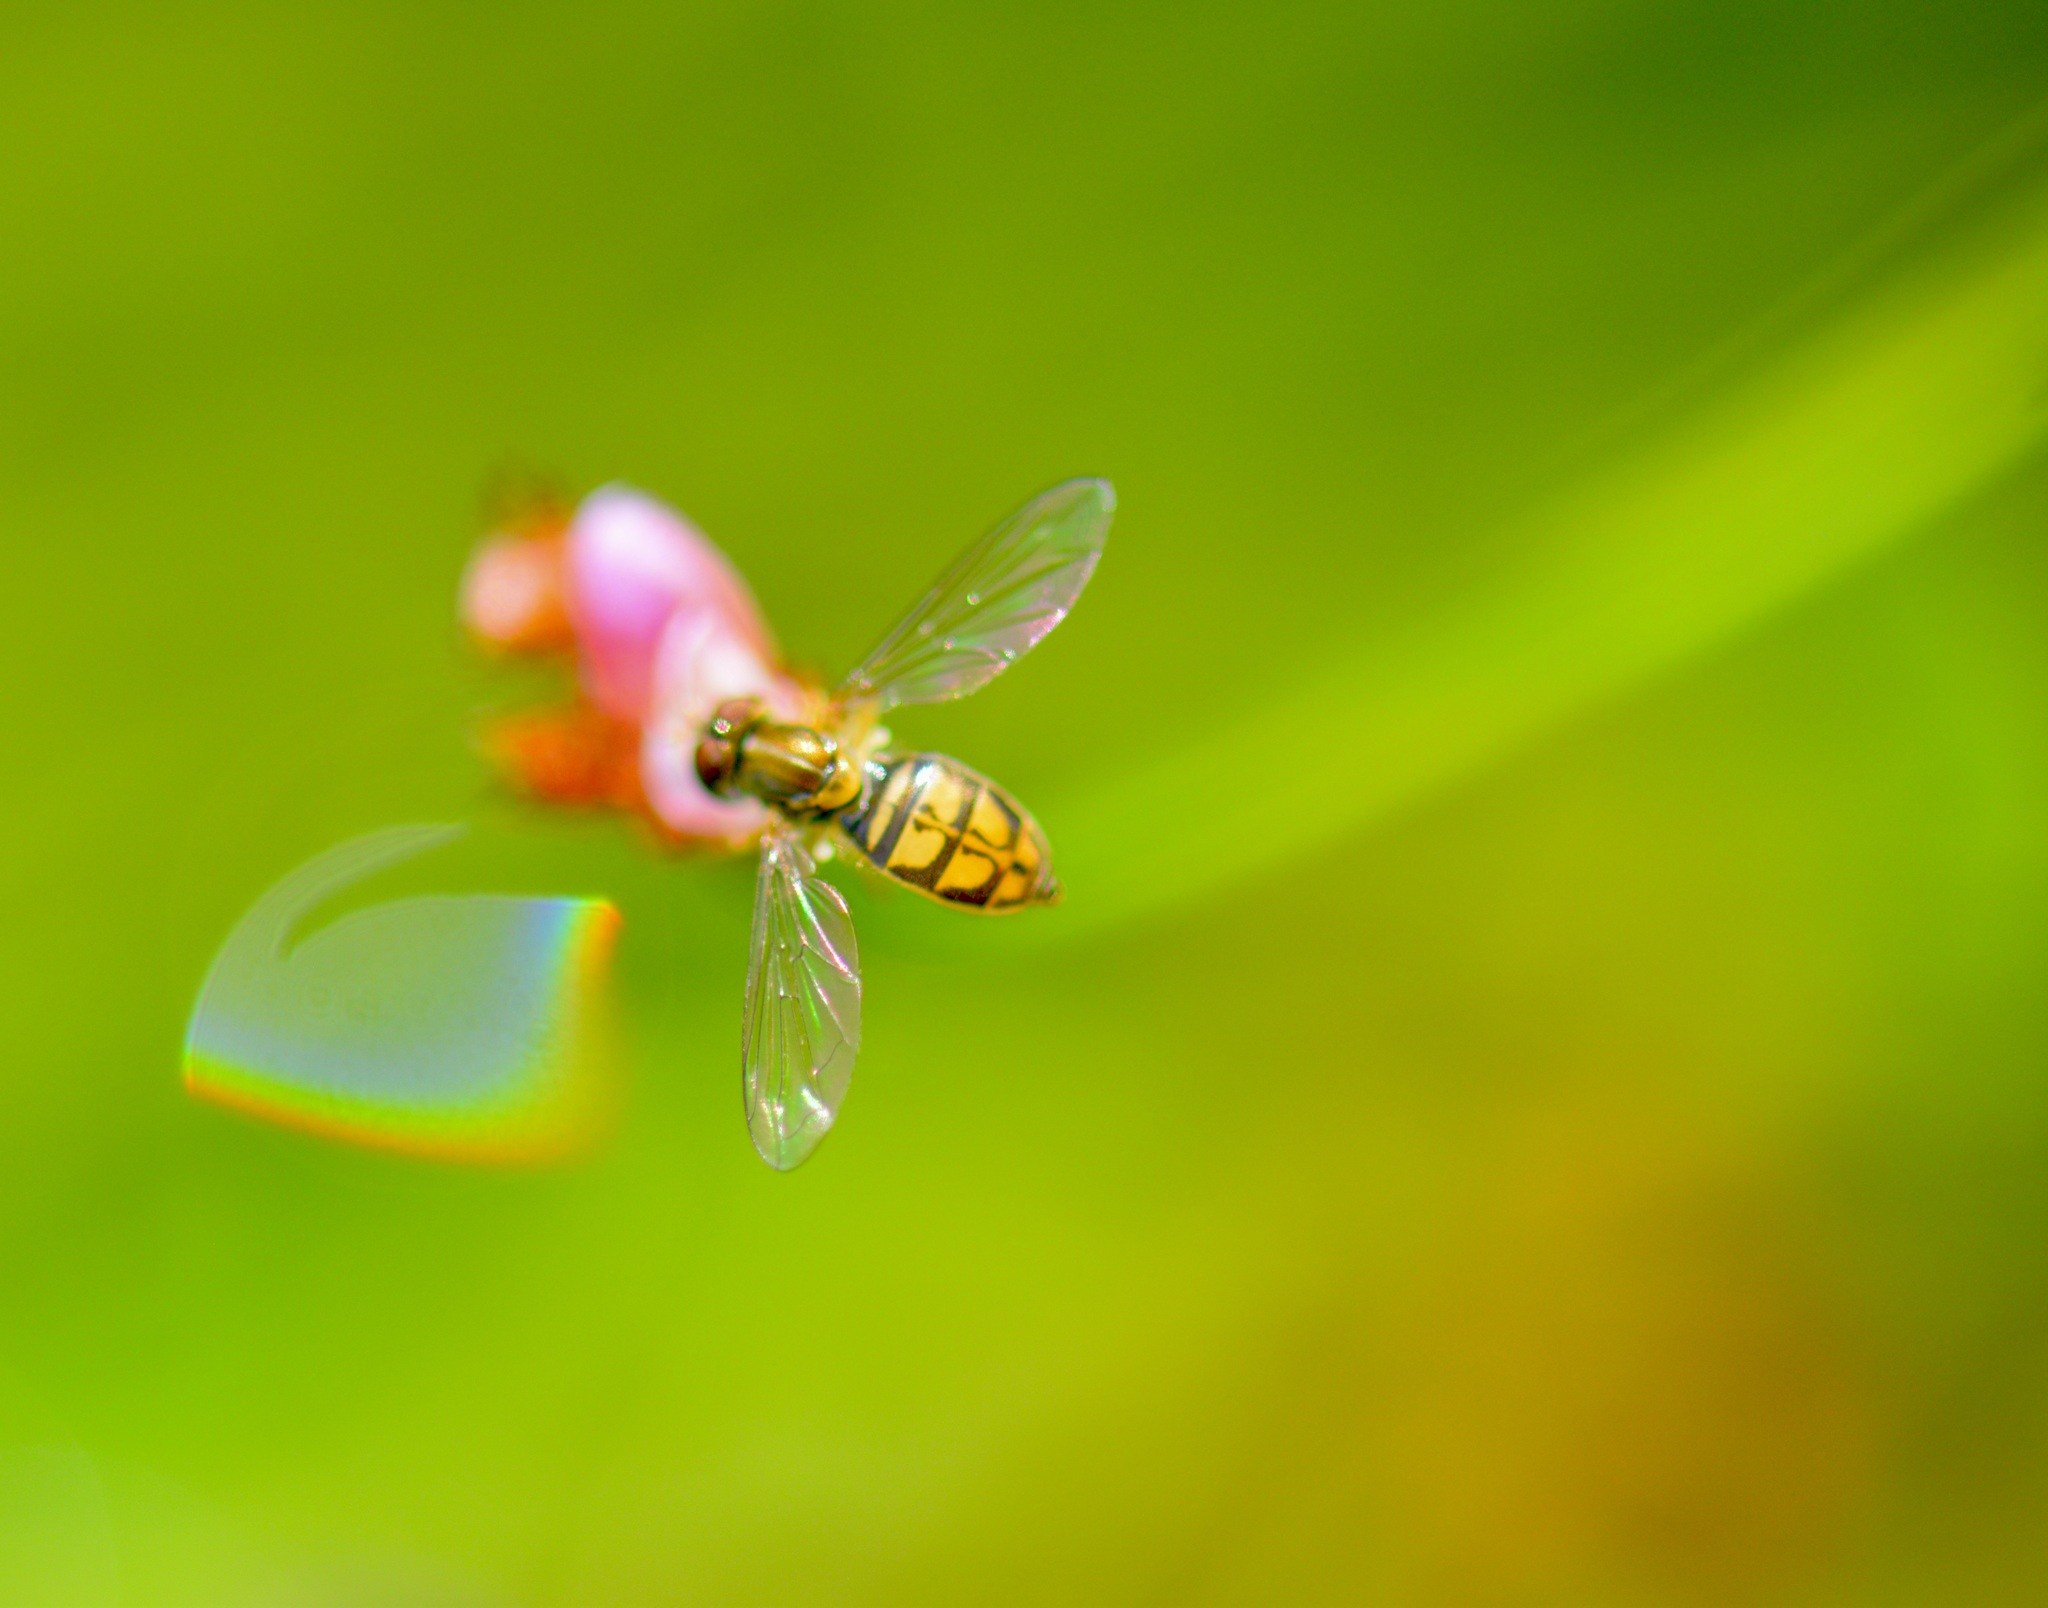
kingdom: Animalia
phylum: Arthropoda
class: Insecta
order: Diptera
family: Syrphidae
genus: Toxomerus
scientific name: Toxomerus marginatus
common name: Syrphid fly
